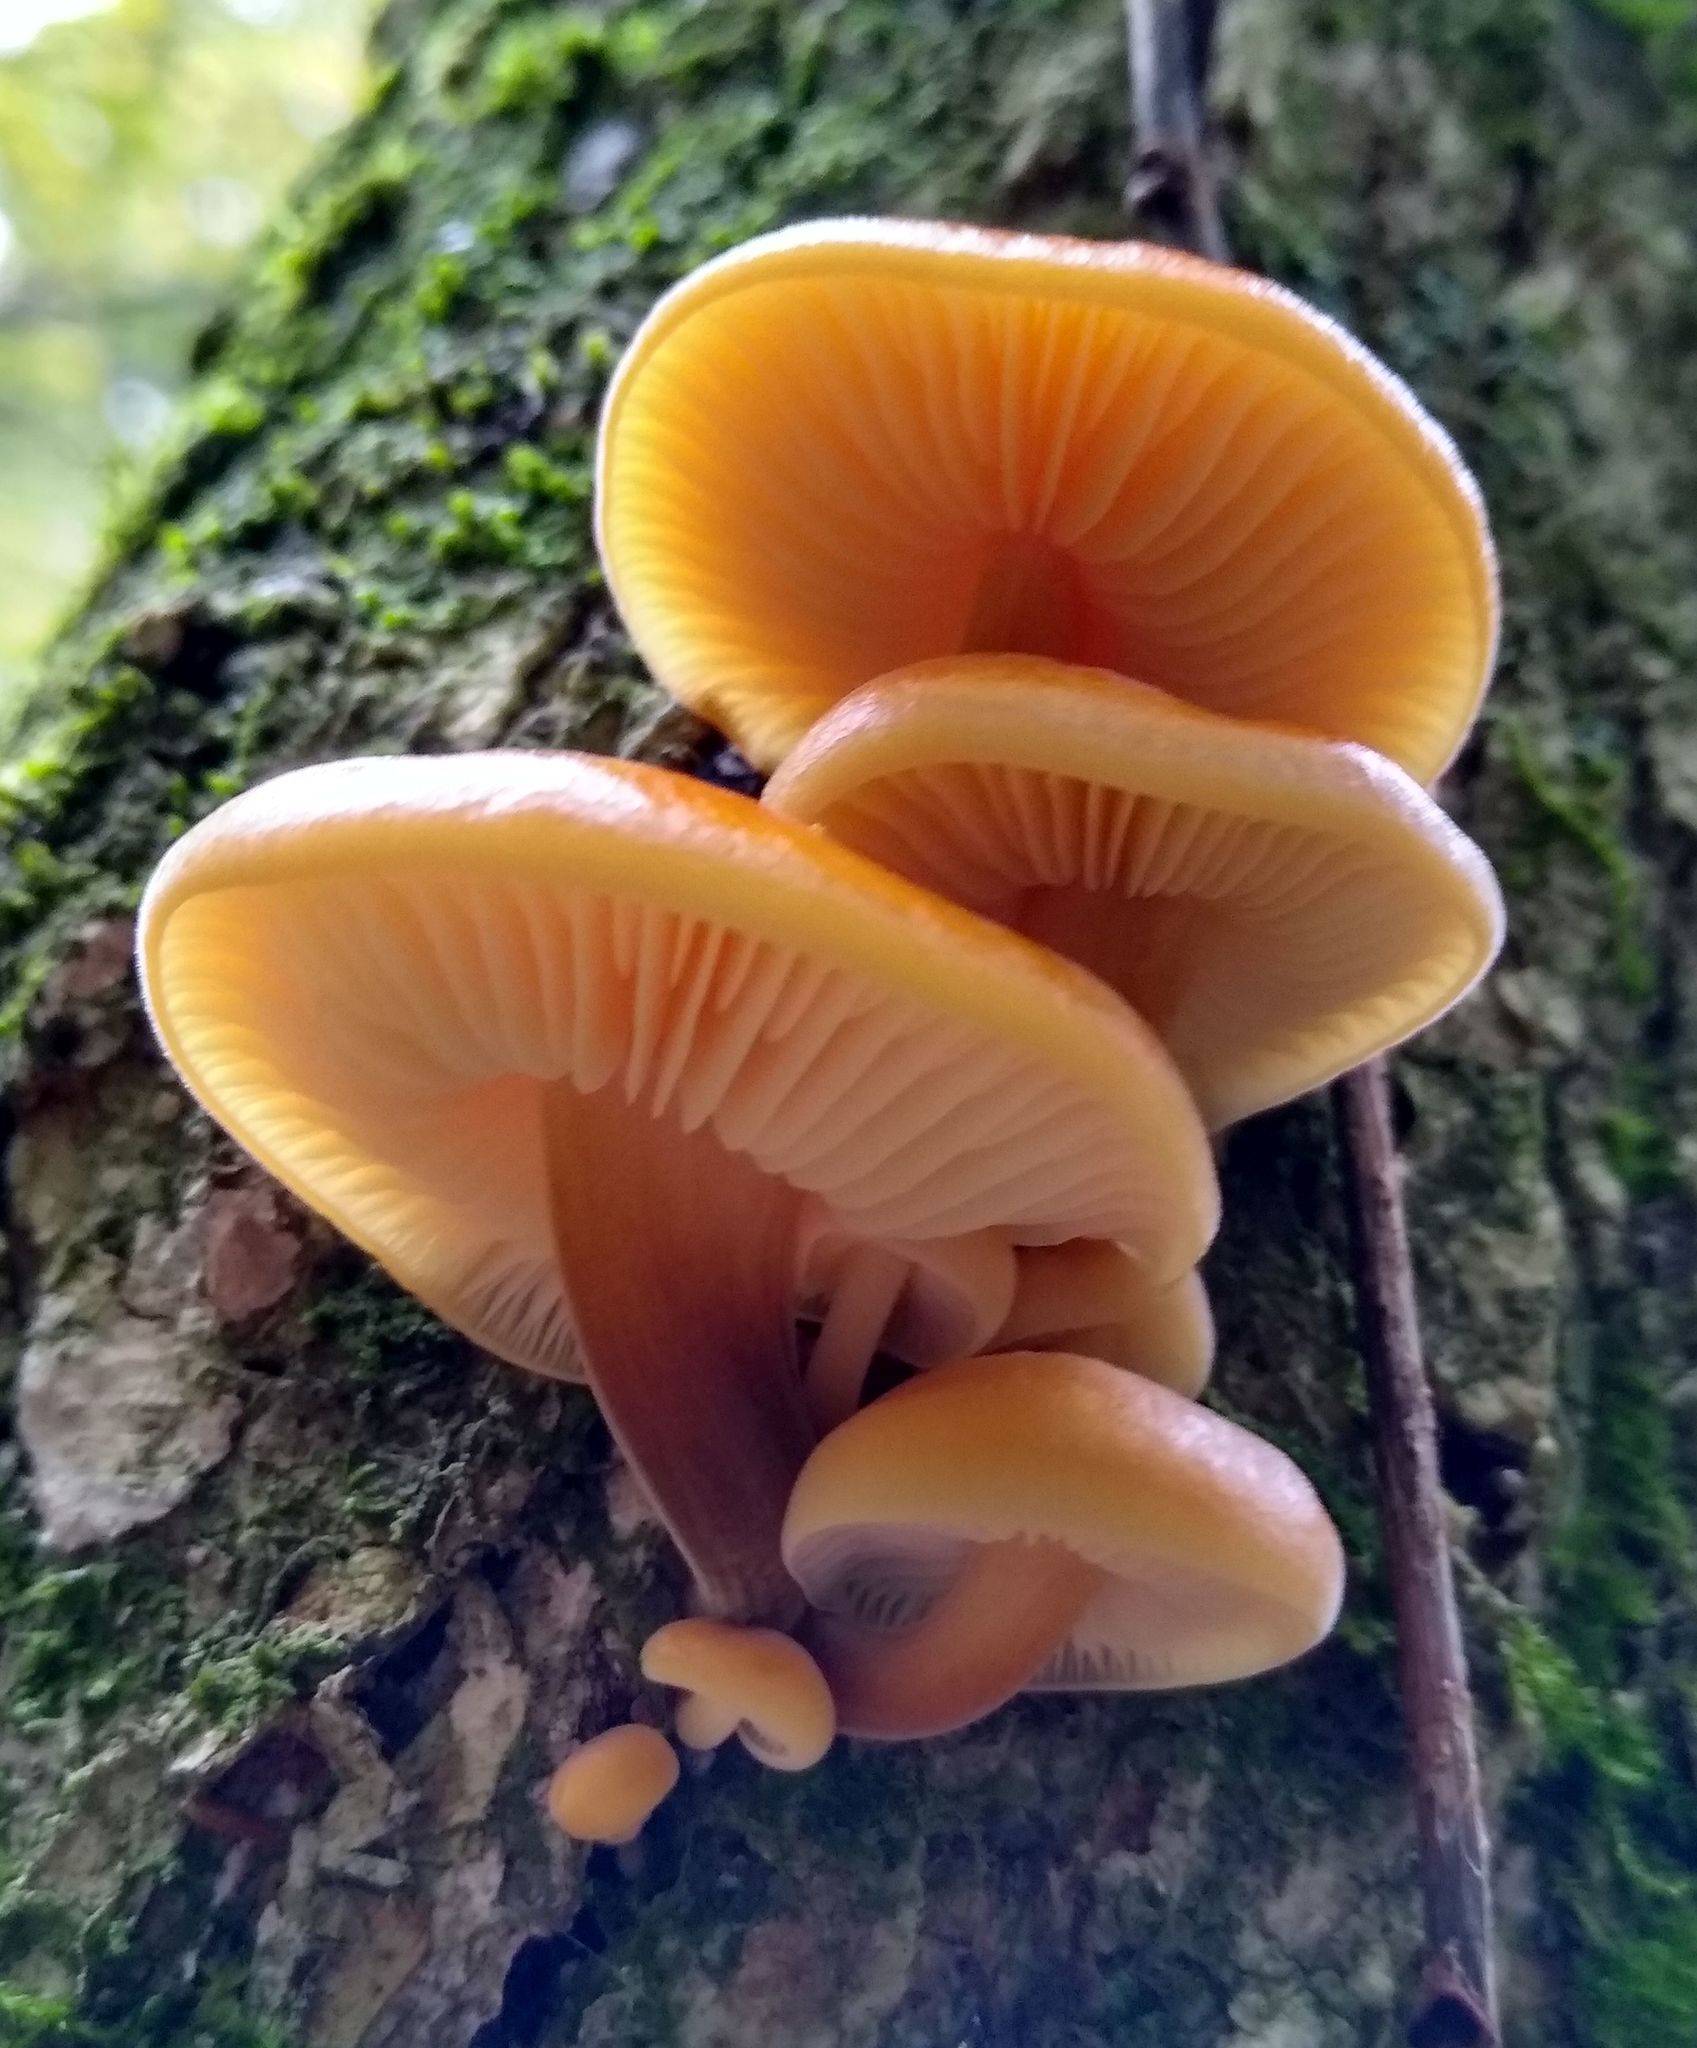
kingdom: Fungi
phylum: Basidiomycota
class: Agaricomycetes
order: Agaricales
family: Physalacriaceae
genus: Flammulina
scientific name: Flammulina velutipes
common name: Velvet shank
